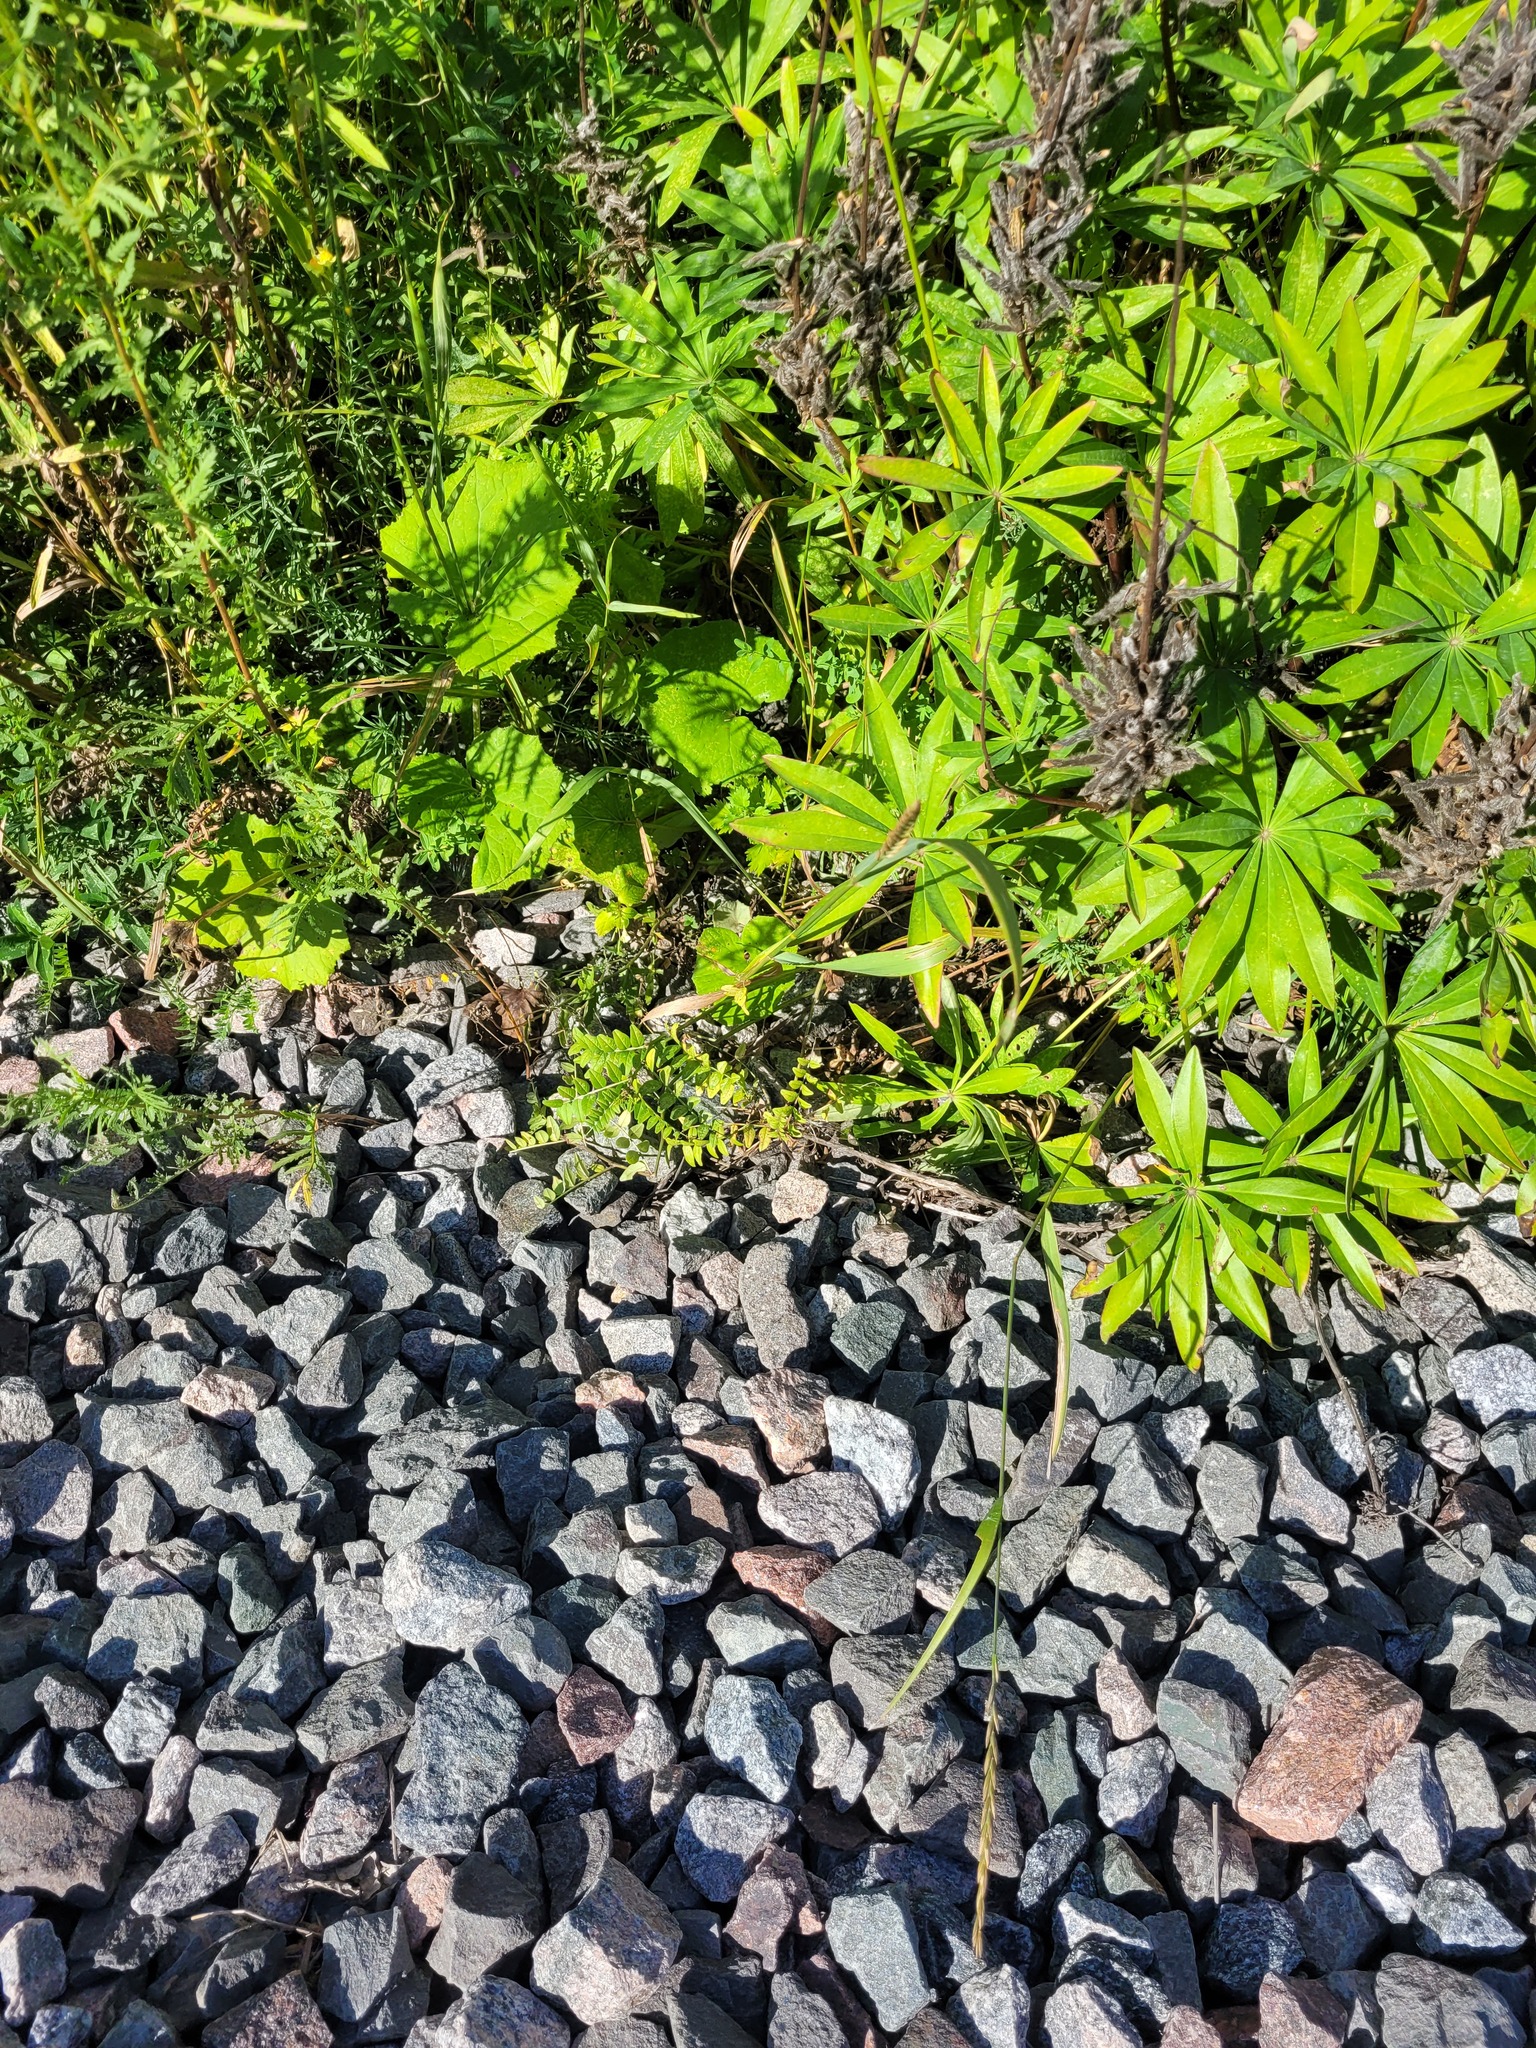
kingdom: Plantae
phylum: Tracheophyta
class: Magnoliopsida
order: Fabales
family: Fabaceae
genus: Vicia
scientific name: Vicia sepium
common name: Bush vetch
